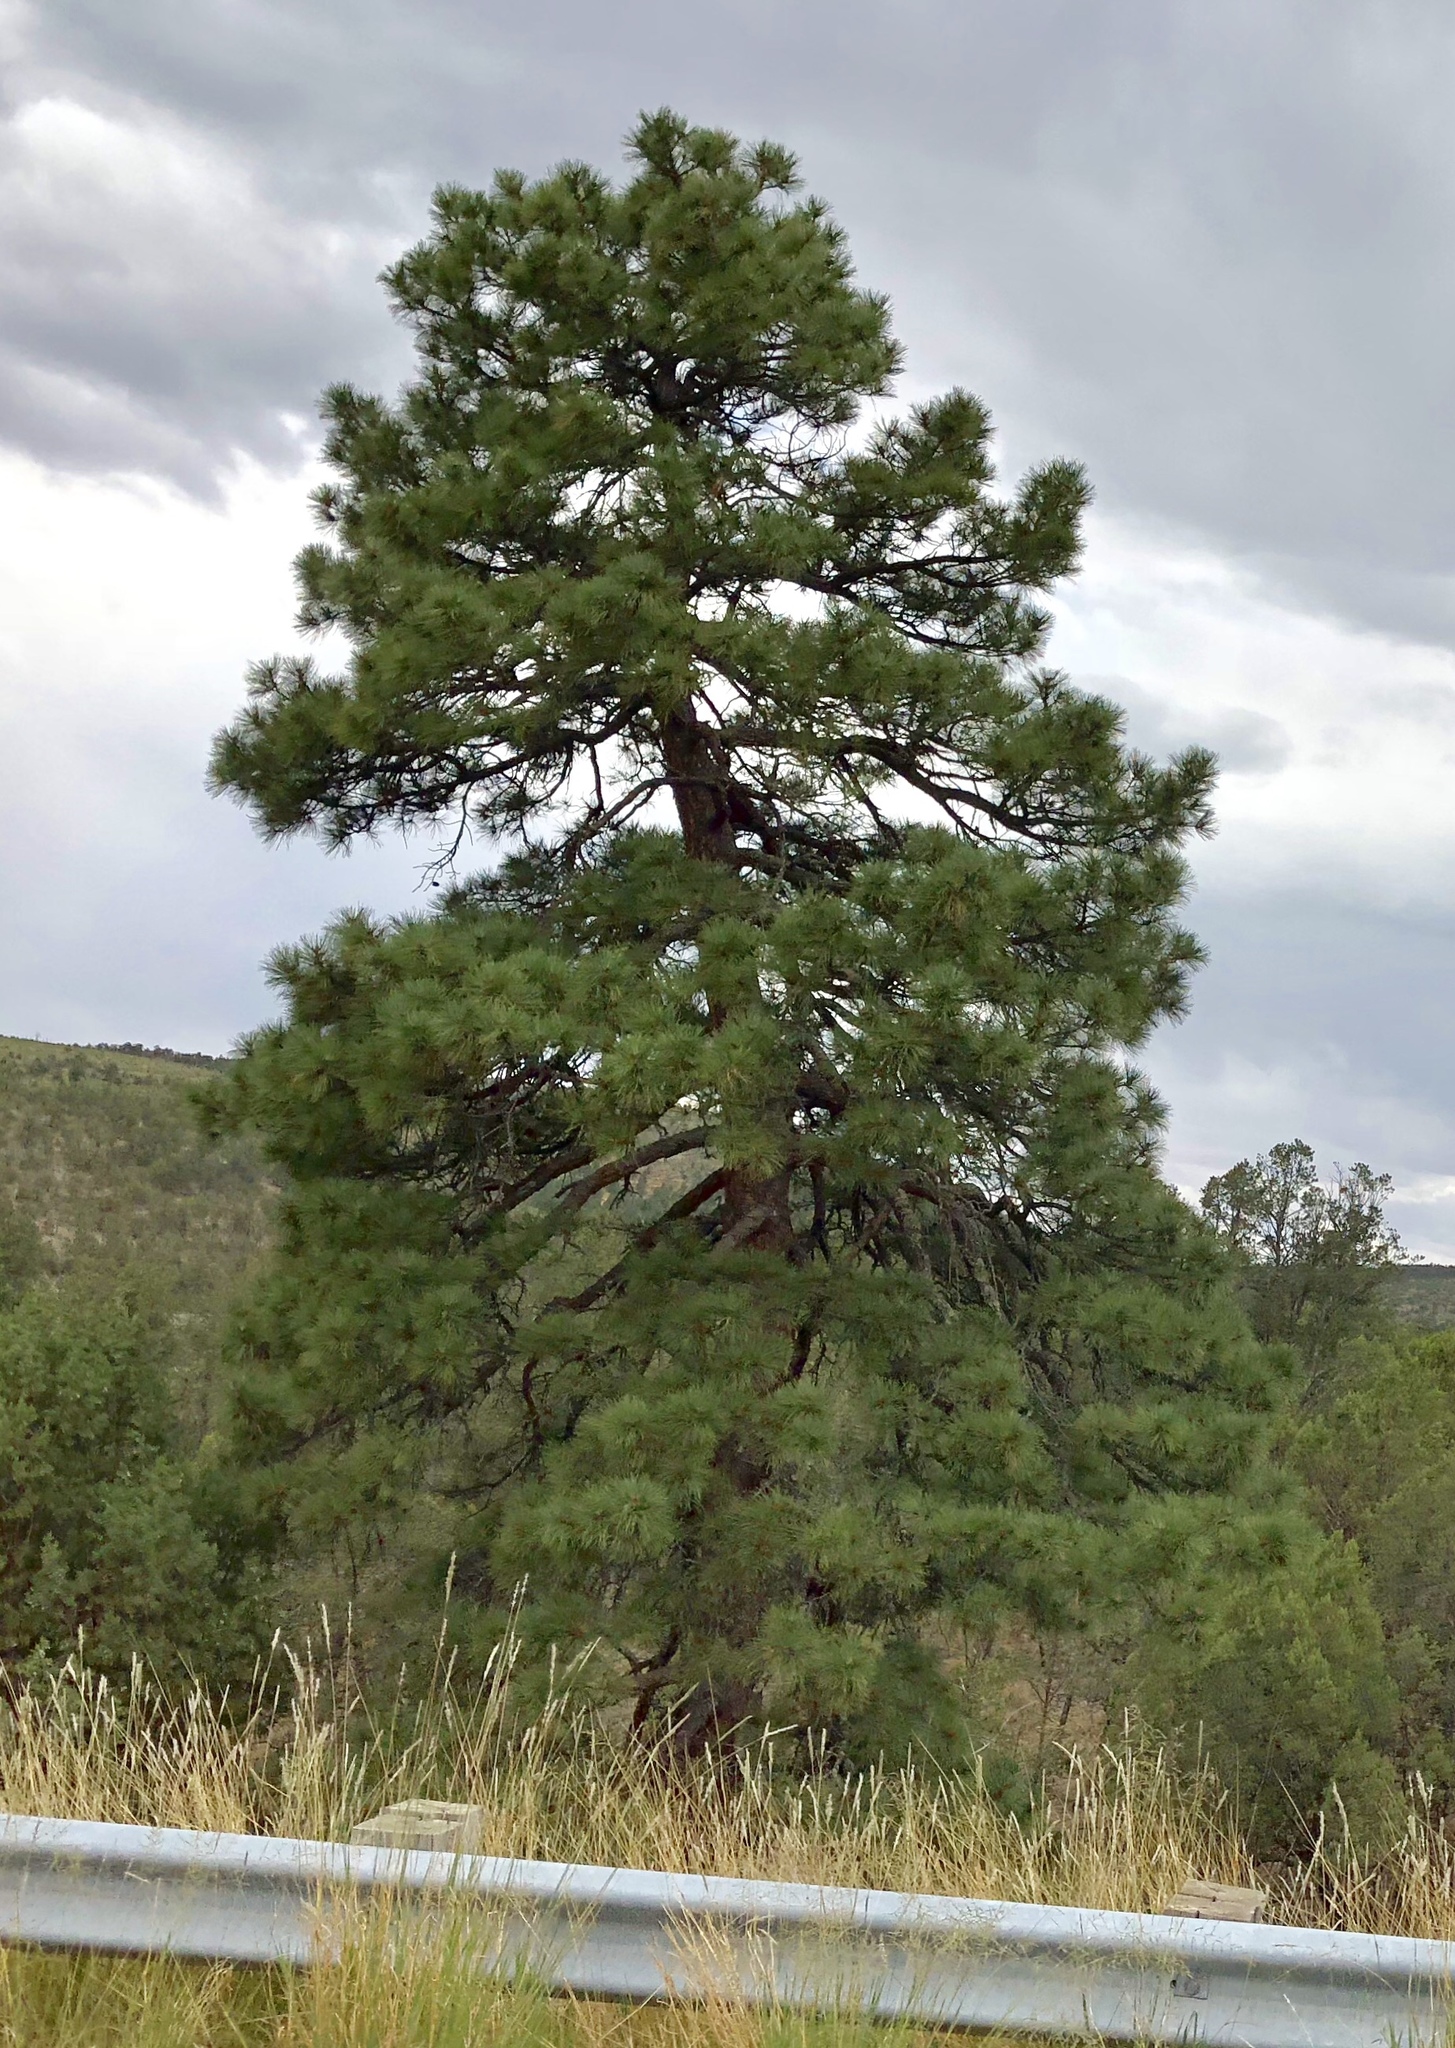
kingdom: Plantae
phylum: Tracheophyta
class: Pinopsida
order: Pinales
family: Pinaceae
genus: Pinus
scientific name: Pinus ponderosa
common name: Western yellow-pine
